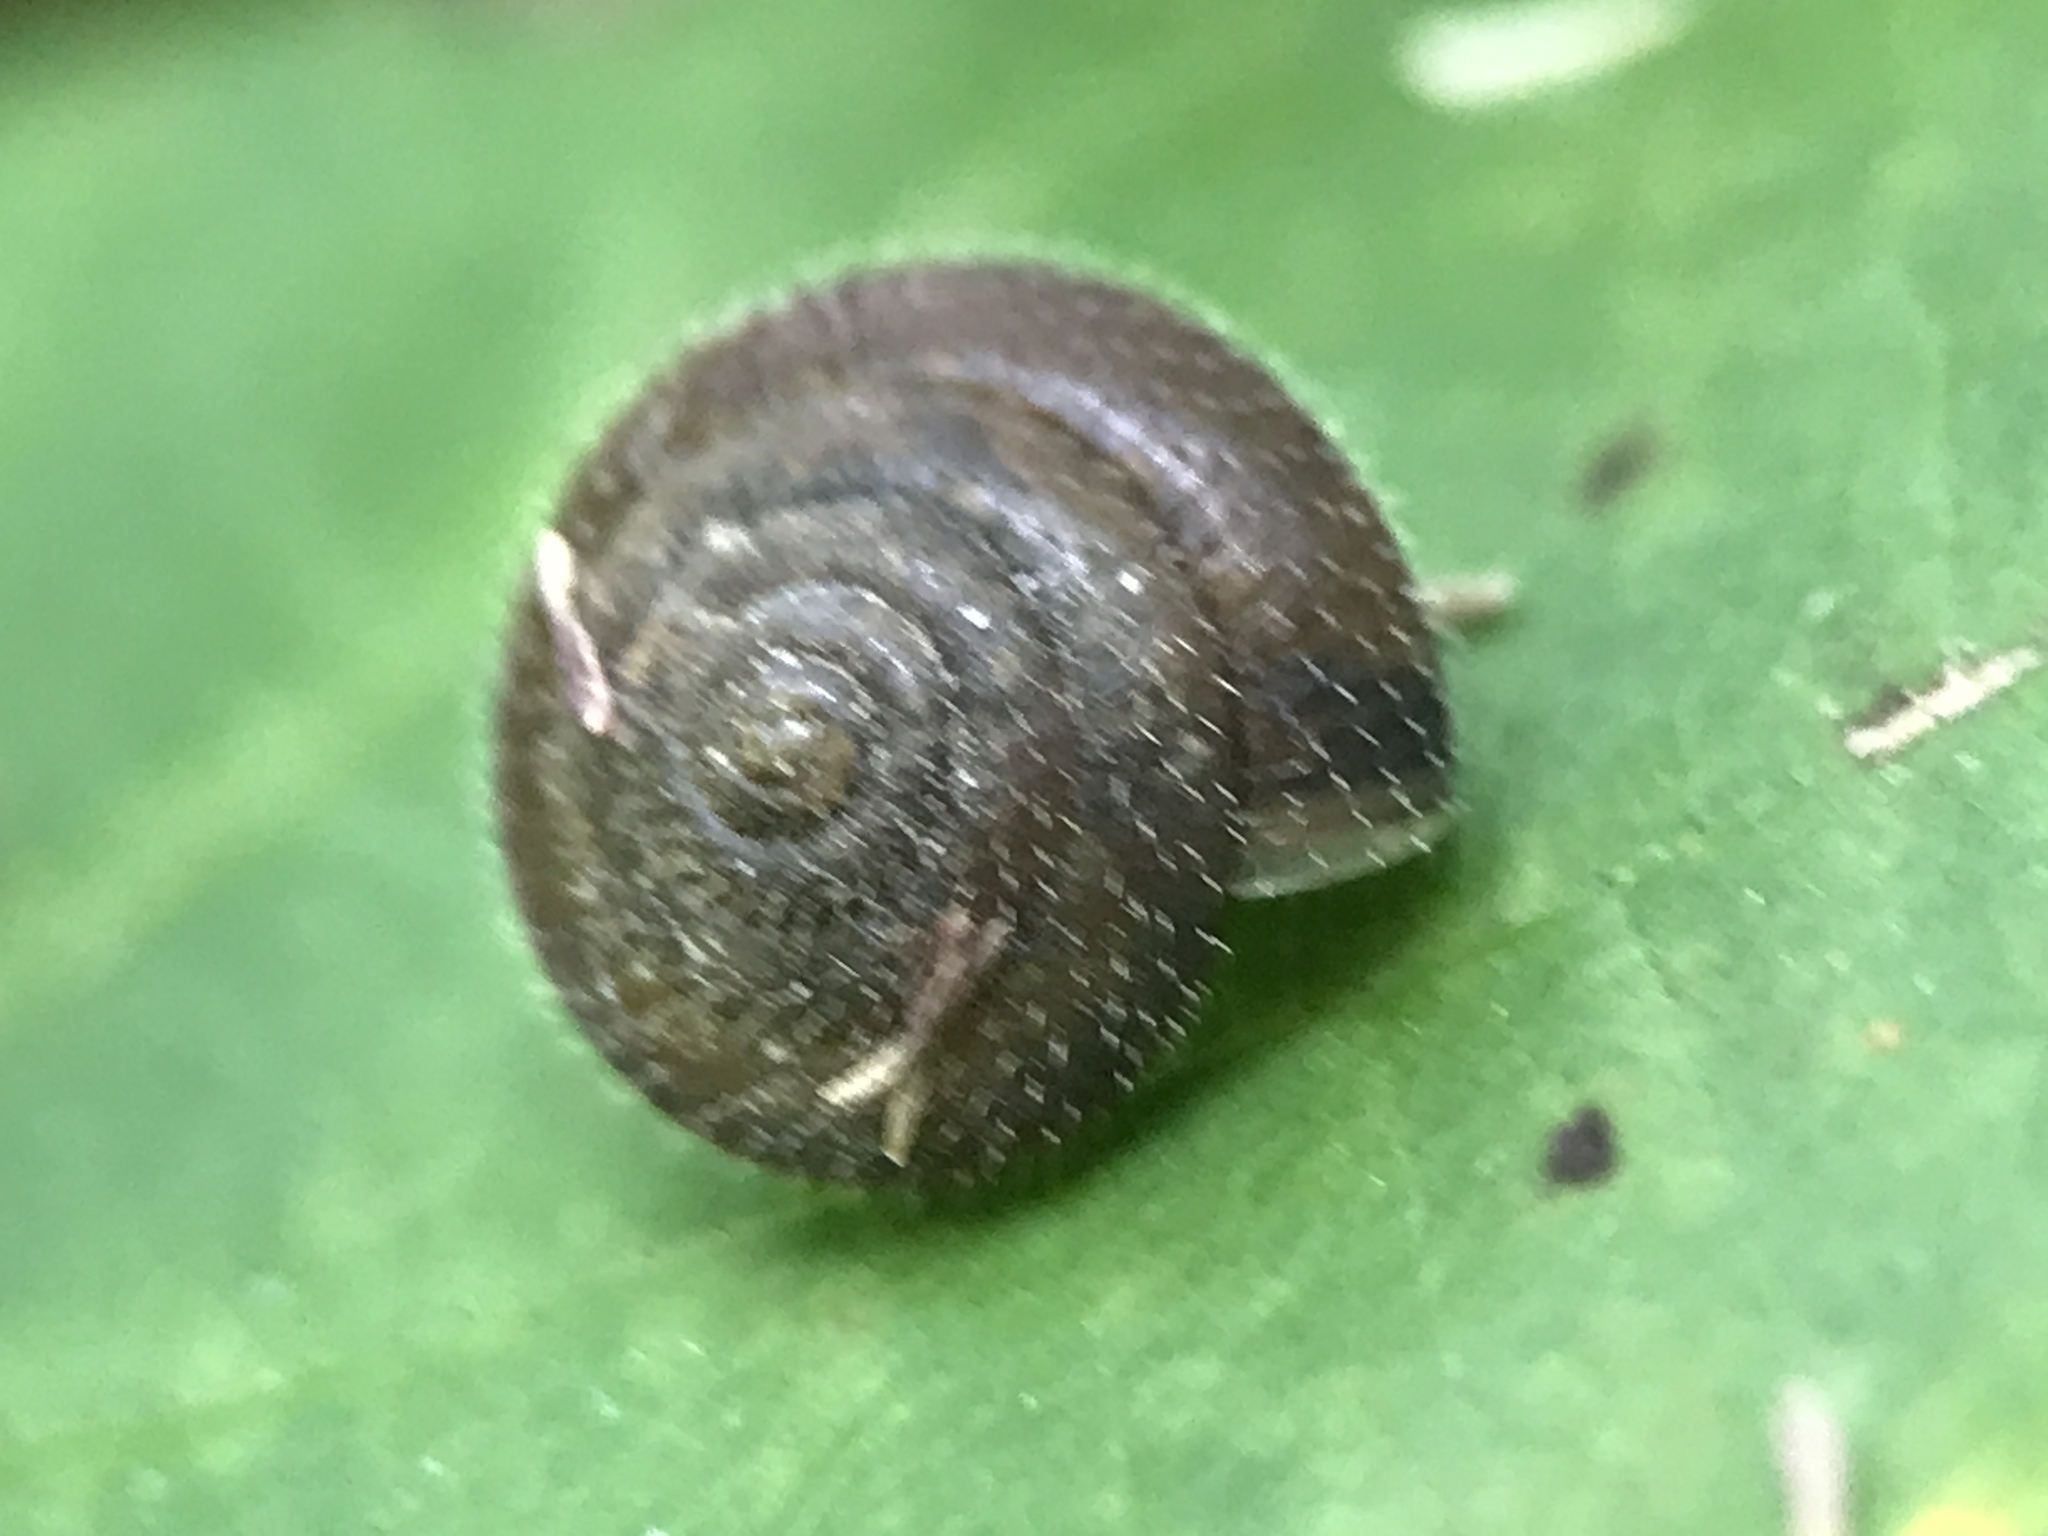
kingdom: Animalia
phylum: Mollusca
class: Gastropoda
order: Stylommatophora
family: Hygromiidae
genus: Trochulus
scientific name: Trochulus hispidus
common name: Hairy snail
